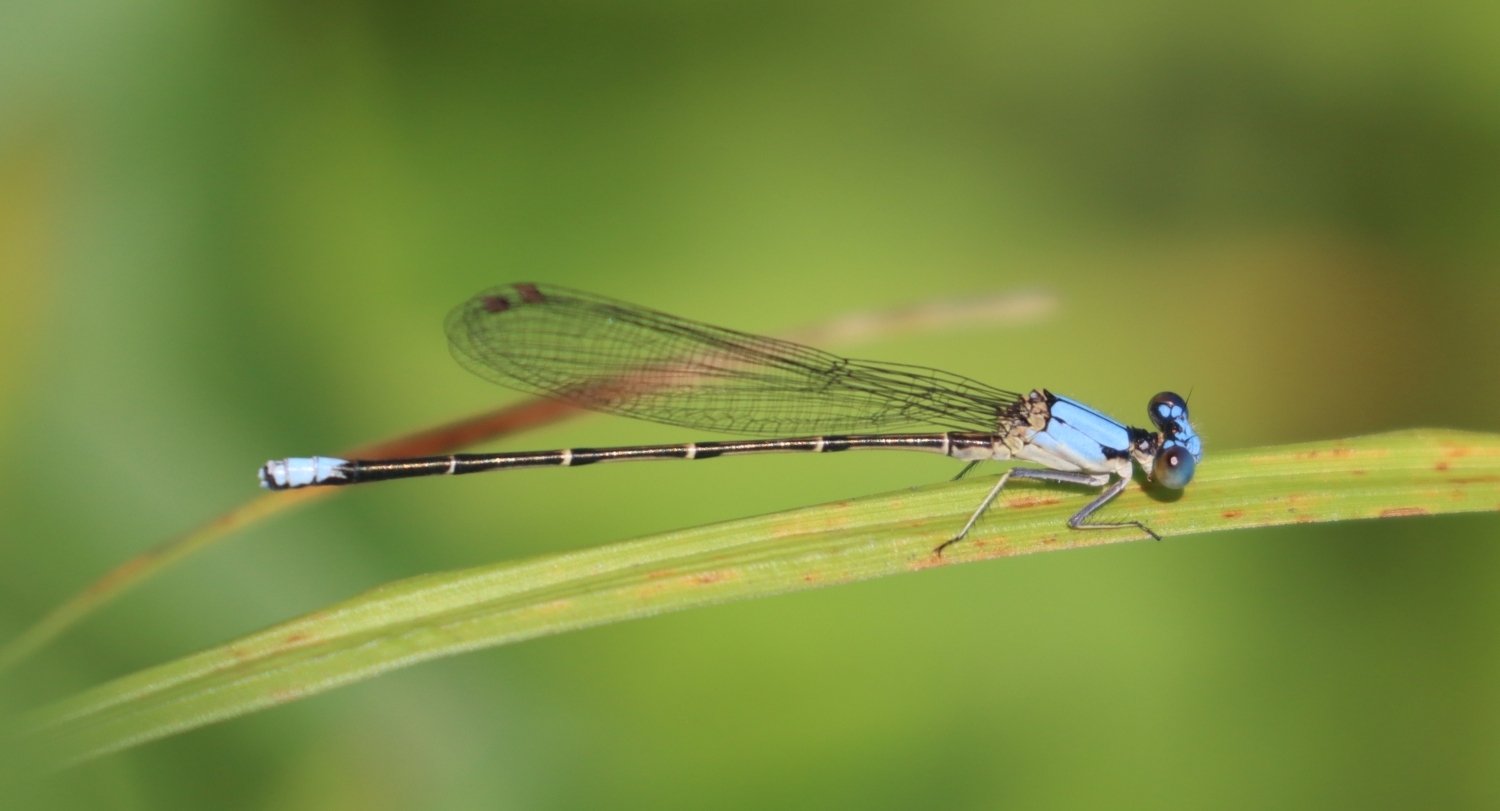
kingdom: Animalia
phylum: Arthropoda
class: Insecta
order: Odonata
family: Coenagrionidae
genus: Argia
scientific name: Argia apicalis
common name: Blue-fronted dancer
